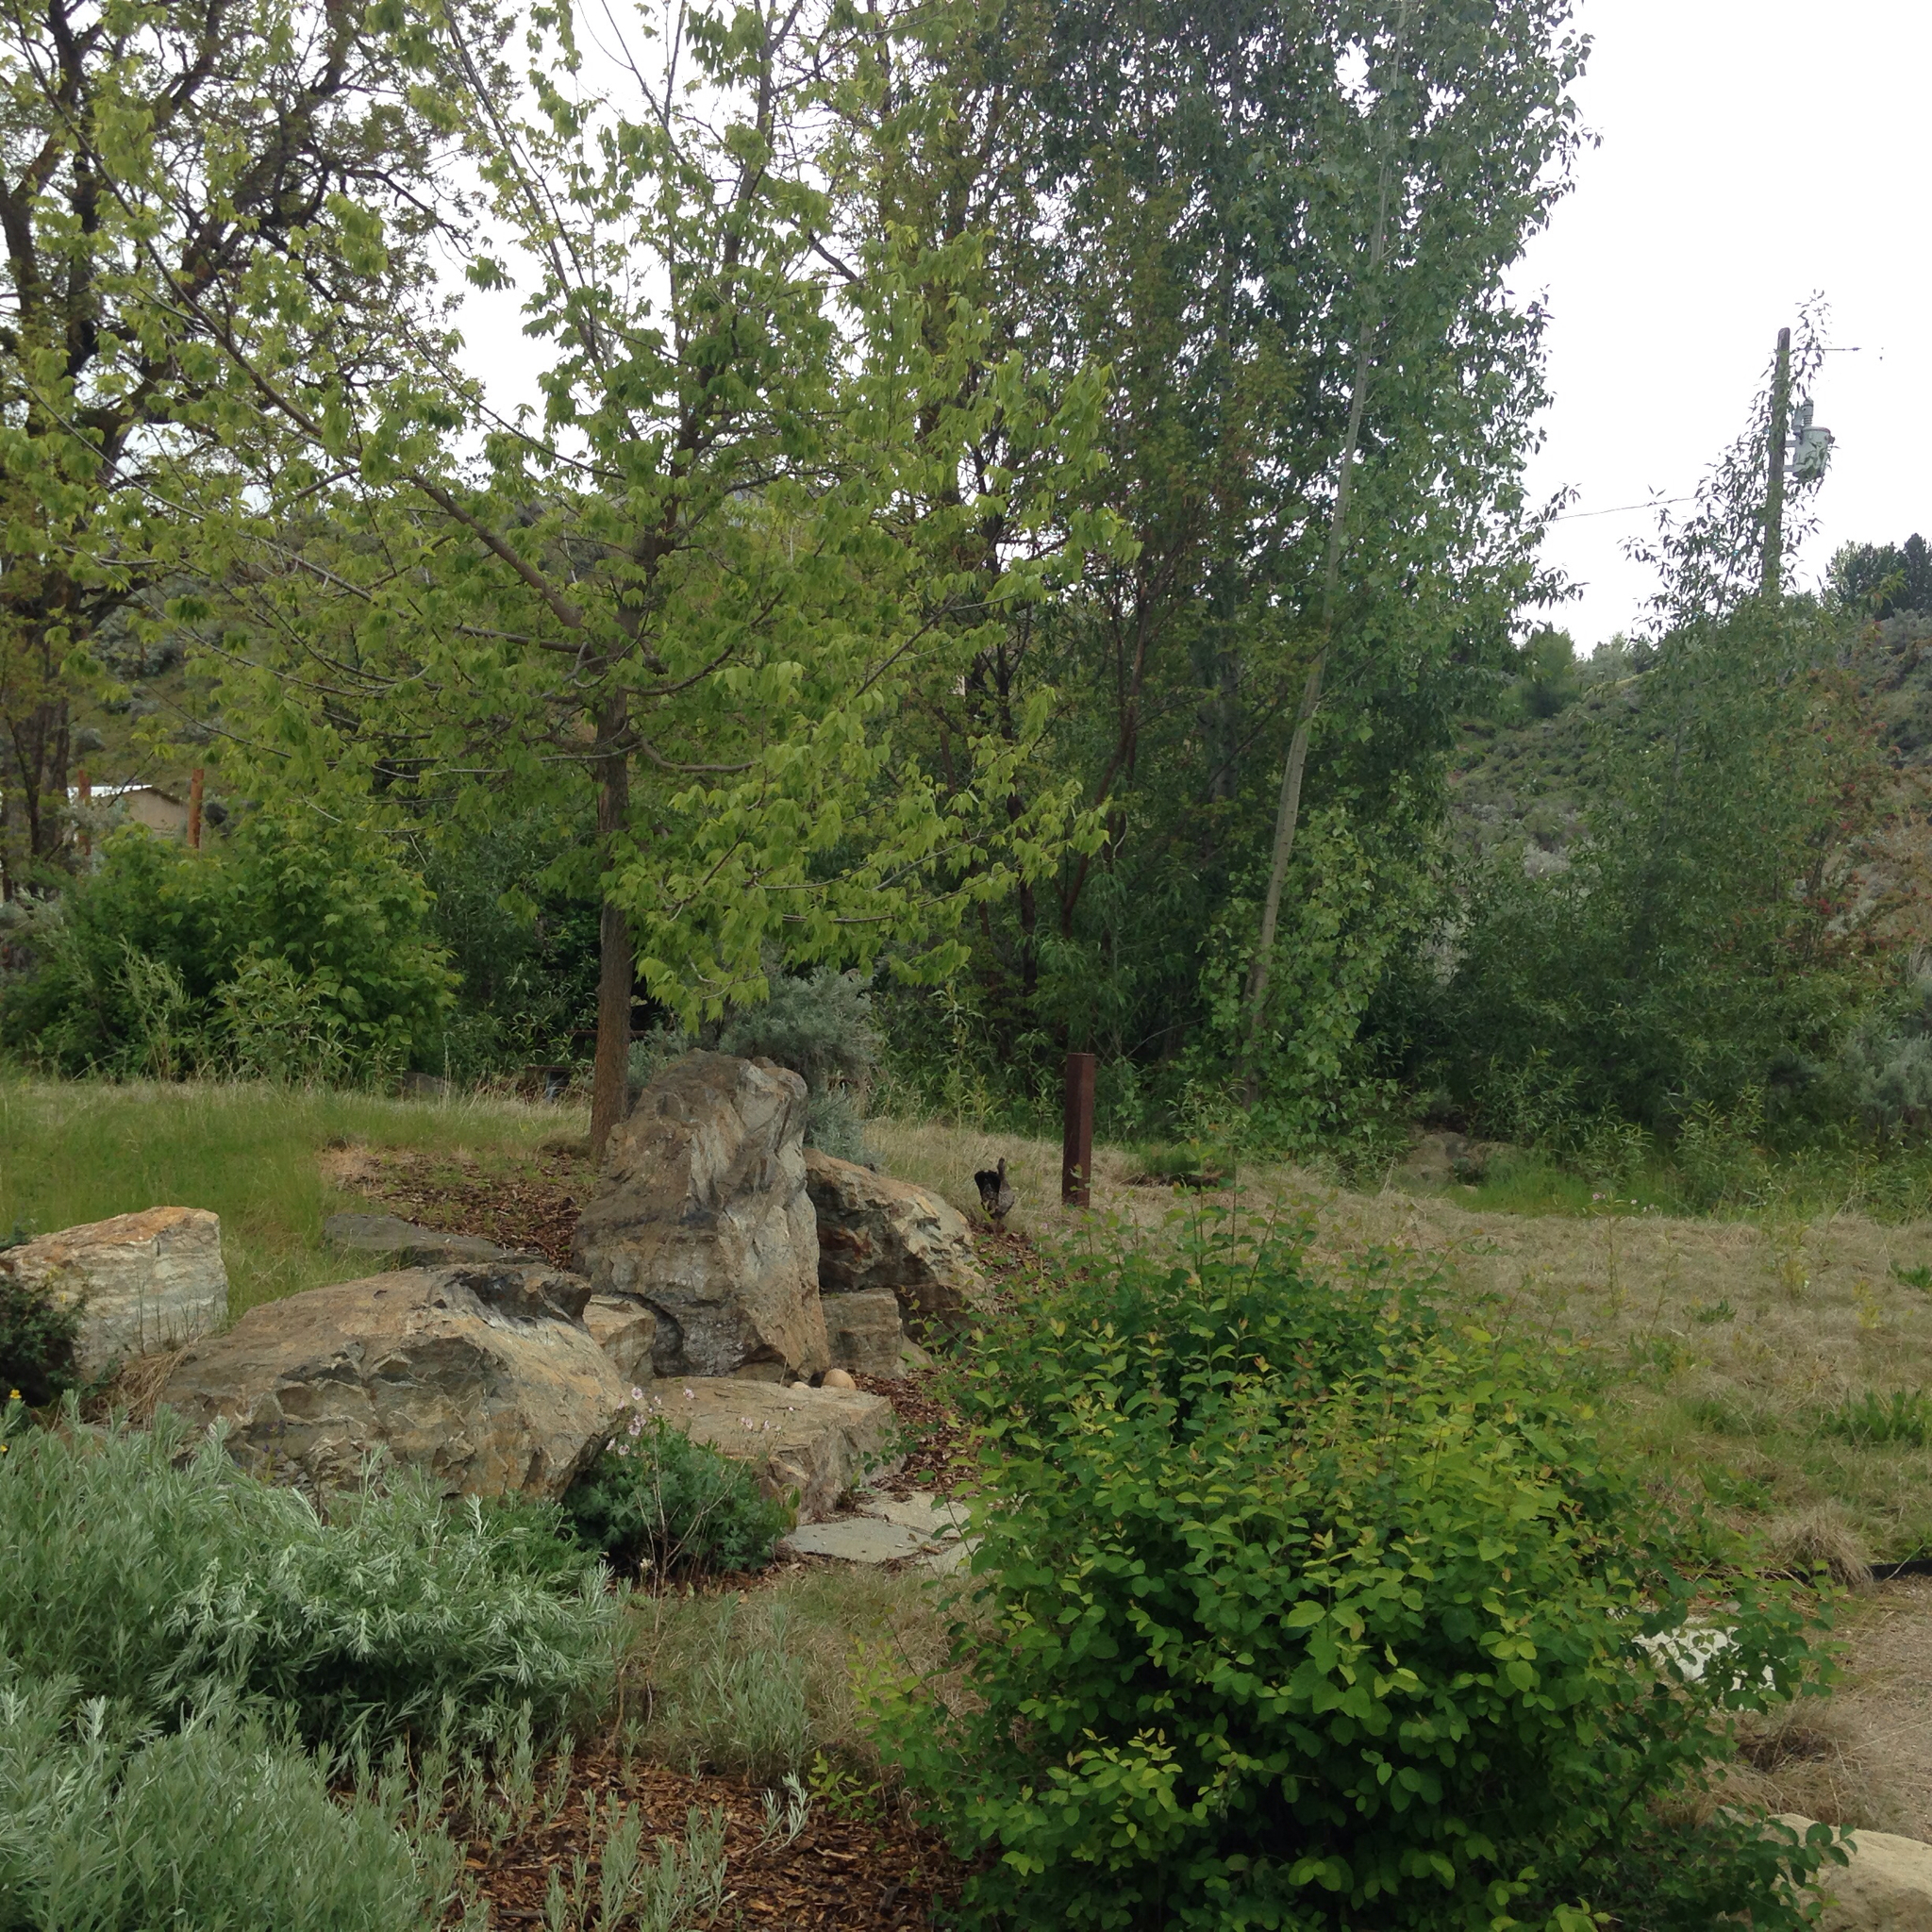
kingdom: Animalia
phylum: Chordata
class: Aves
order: Galliformes
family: Phasianidae
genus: Dendragapus
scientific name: Dendragapus obscurus
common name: Dusky grouse
